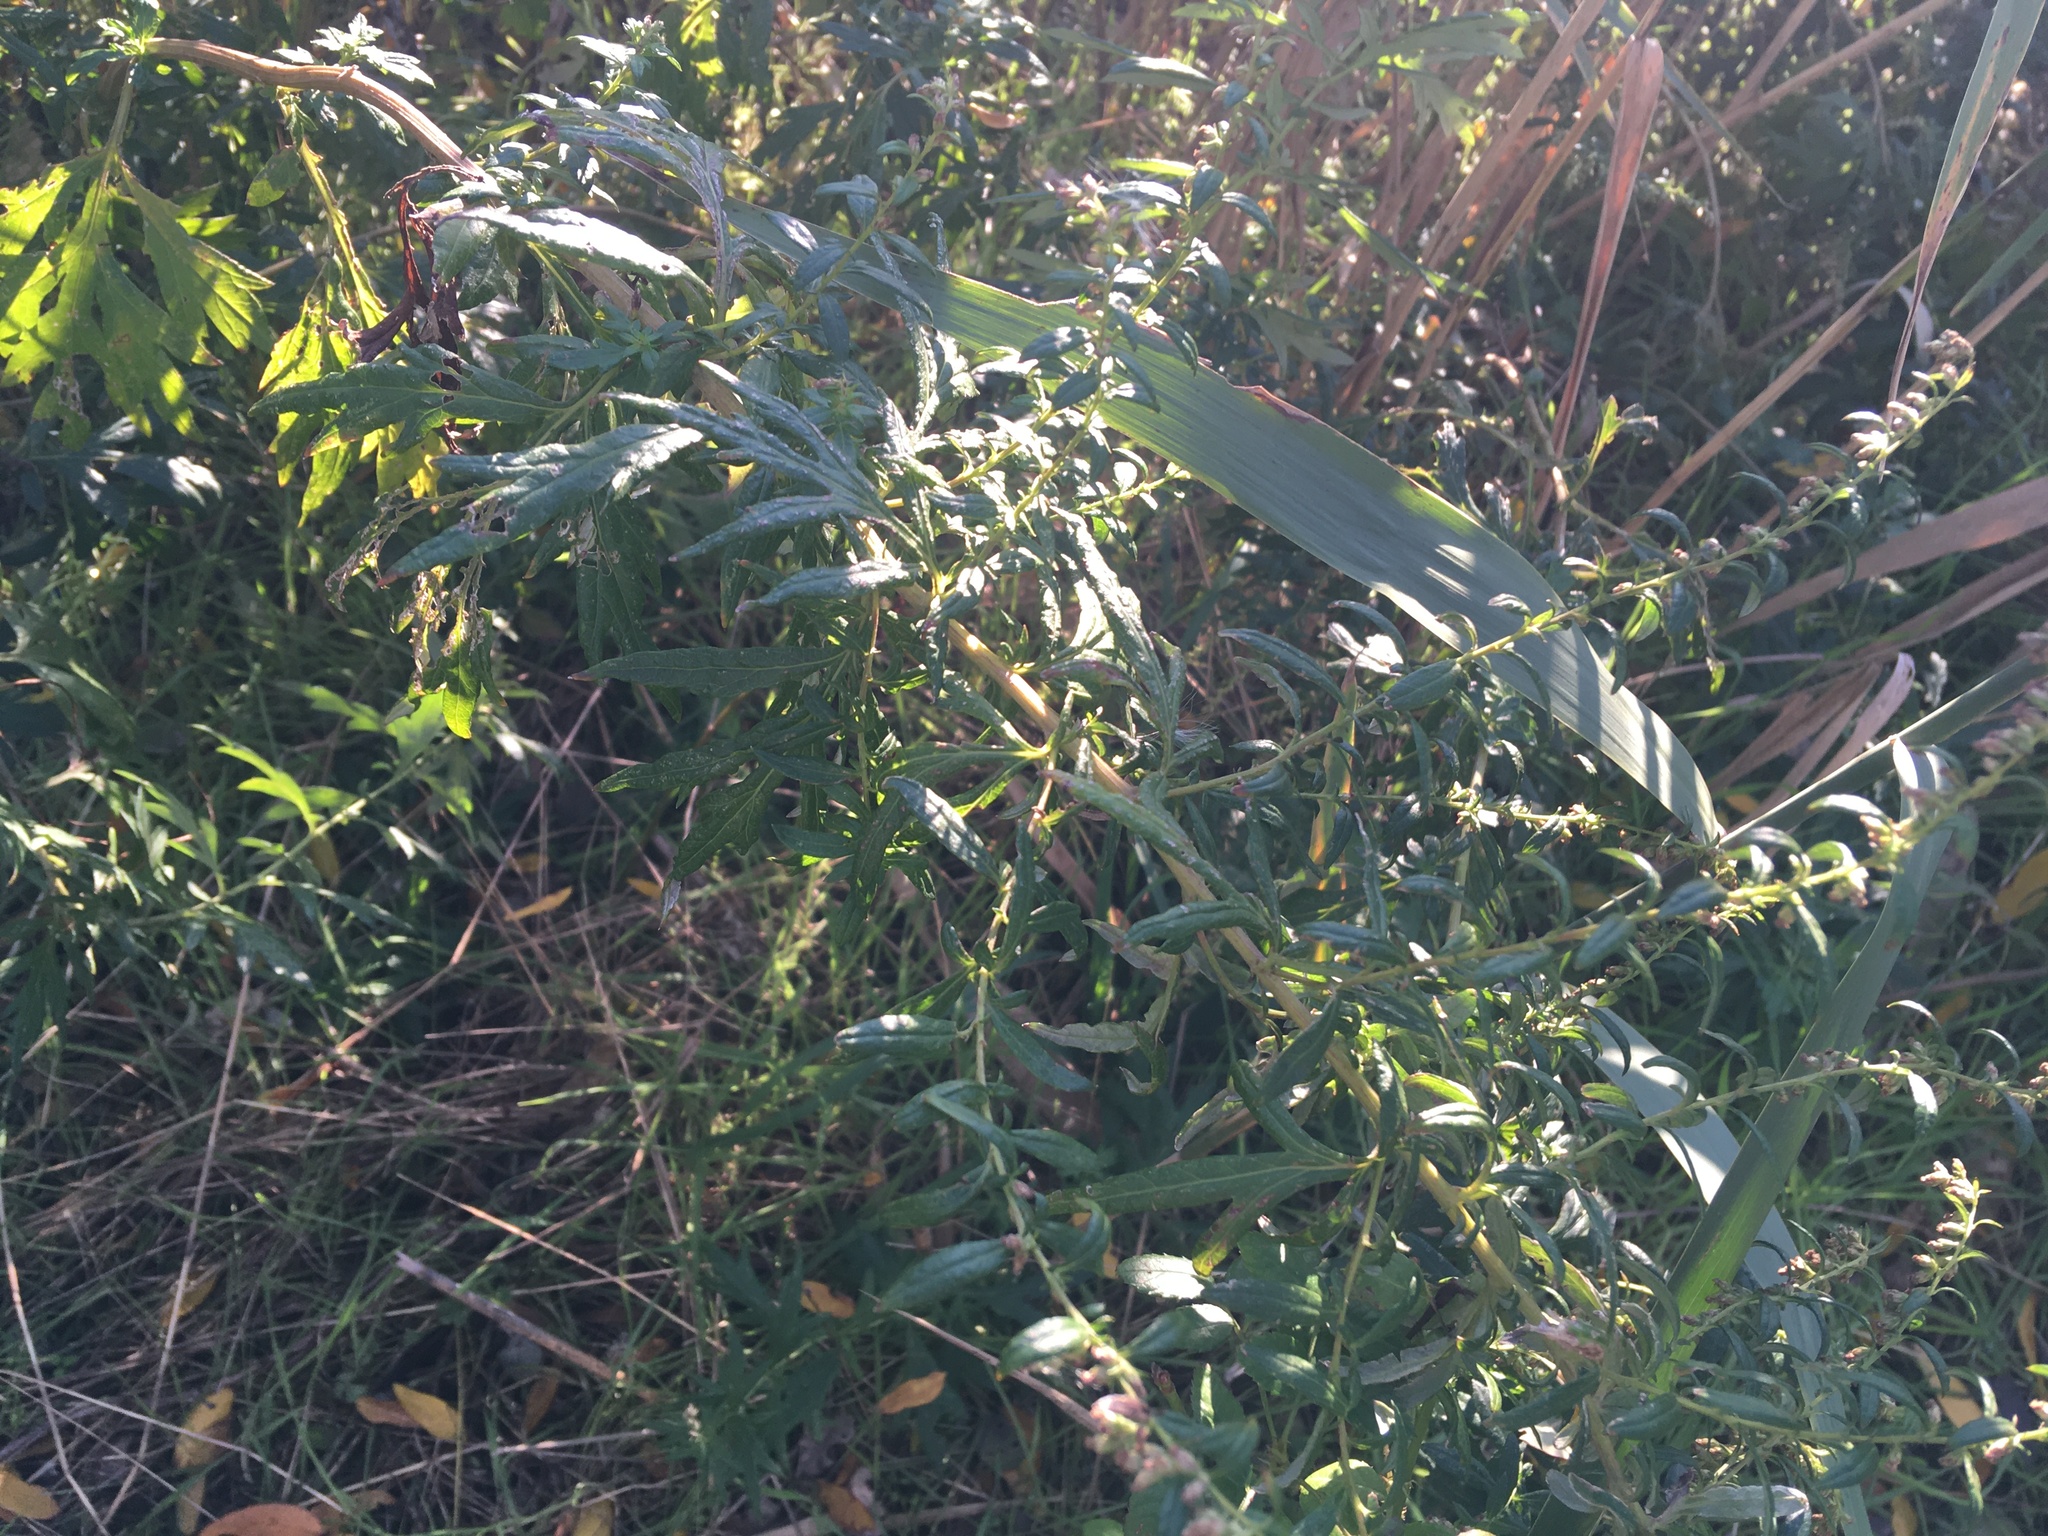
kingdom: Plantae
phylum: Tracheophyta
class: Magnoliopsida
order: Asterales
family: Asteraceae
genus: Artemisia
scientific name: Artemisia vulgaris
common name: Mugwort
